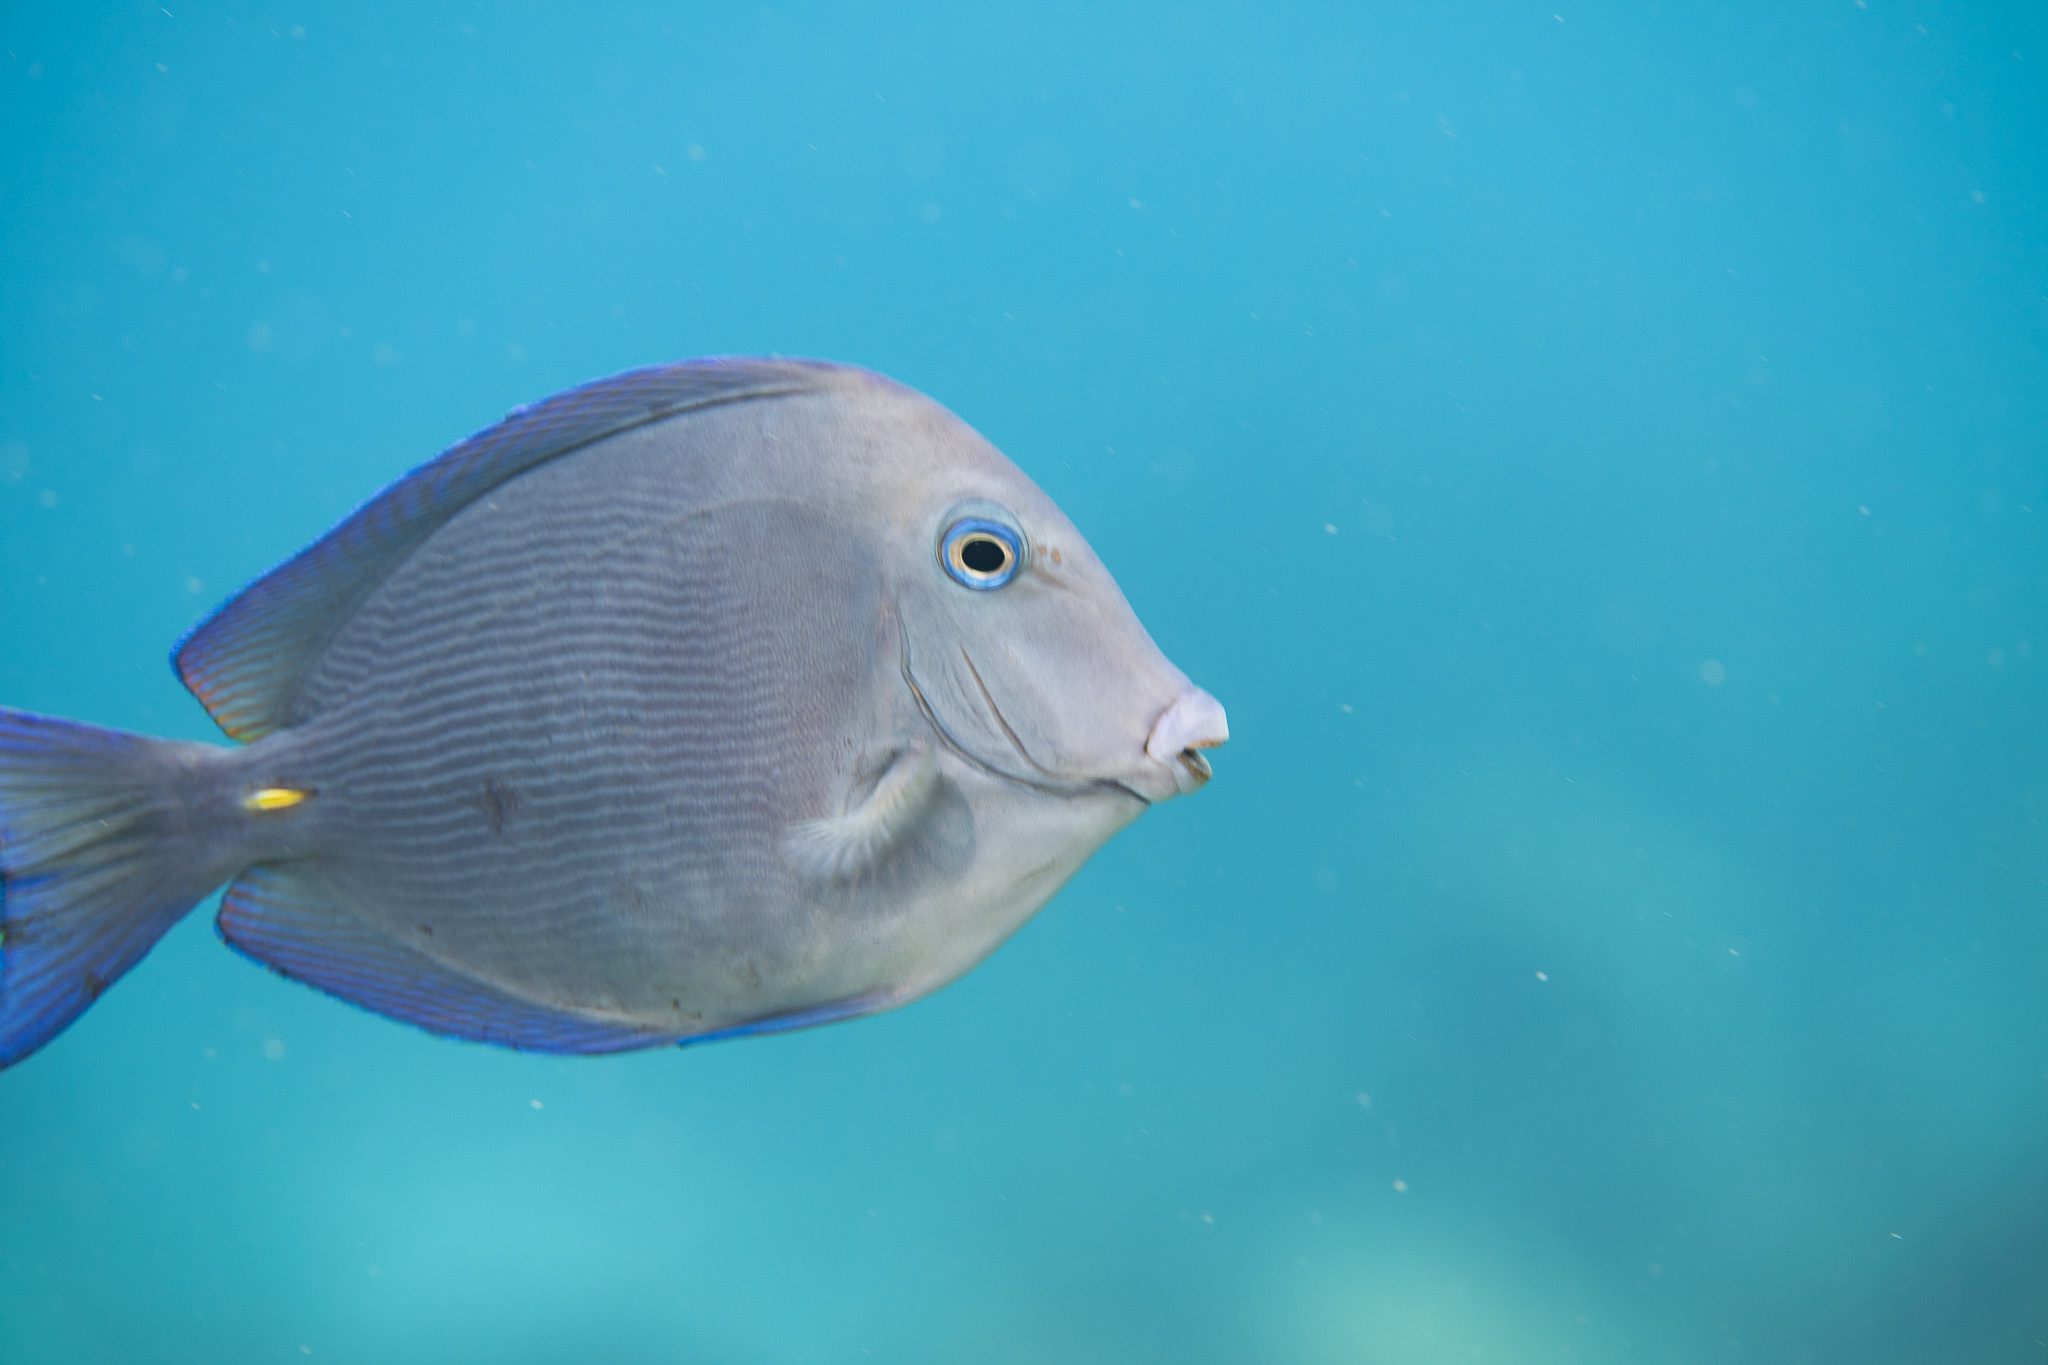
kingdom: Animalia
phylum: Chordata
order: Perciformes
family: Acanthuridae
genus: Acanthurus
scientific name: Acanthurus coeruleus
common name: Blue tang
